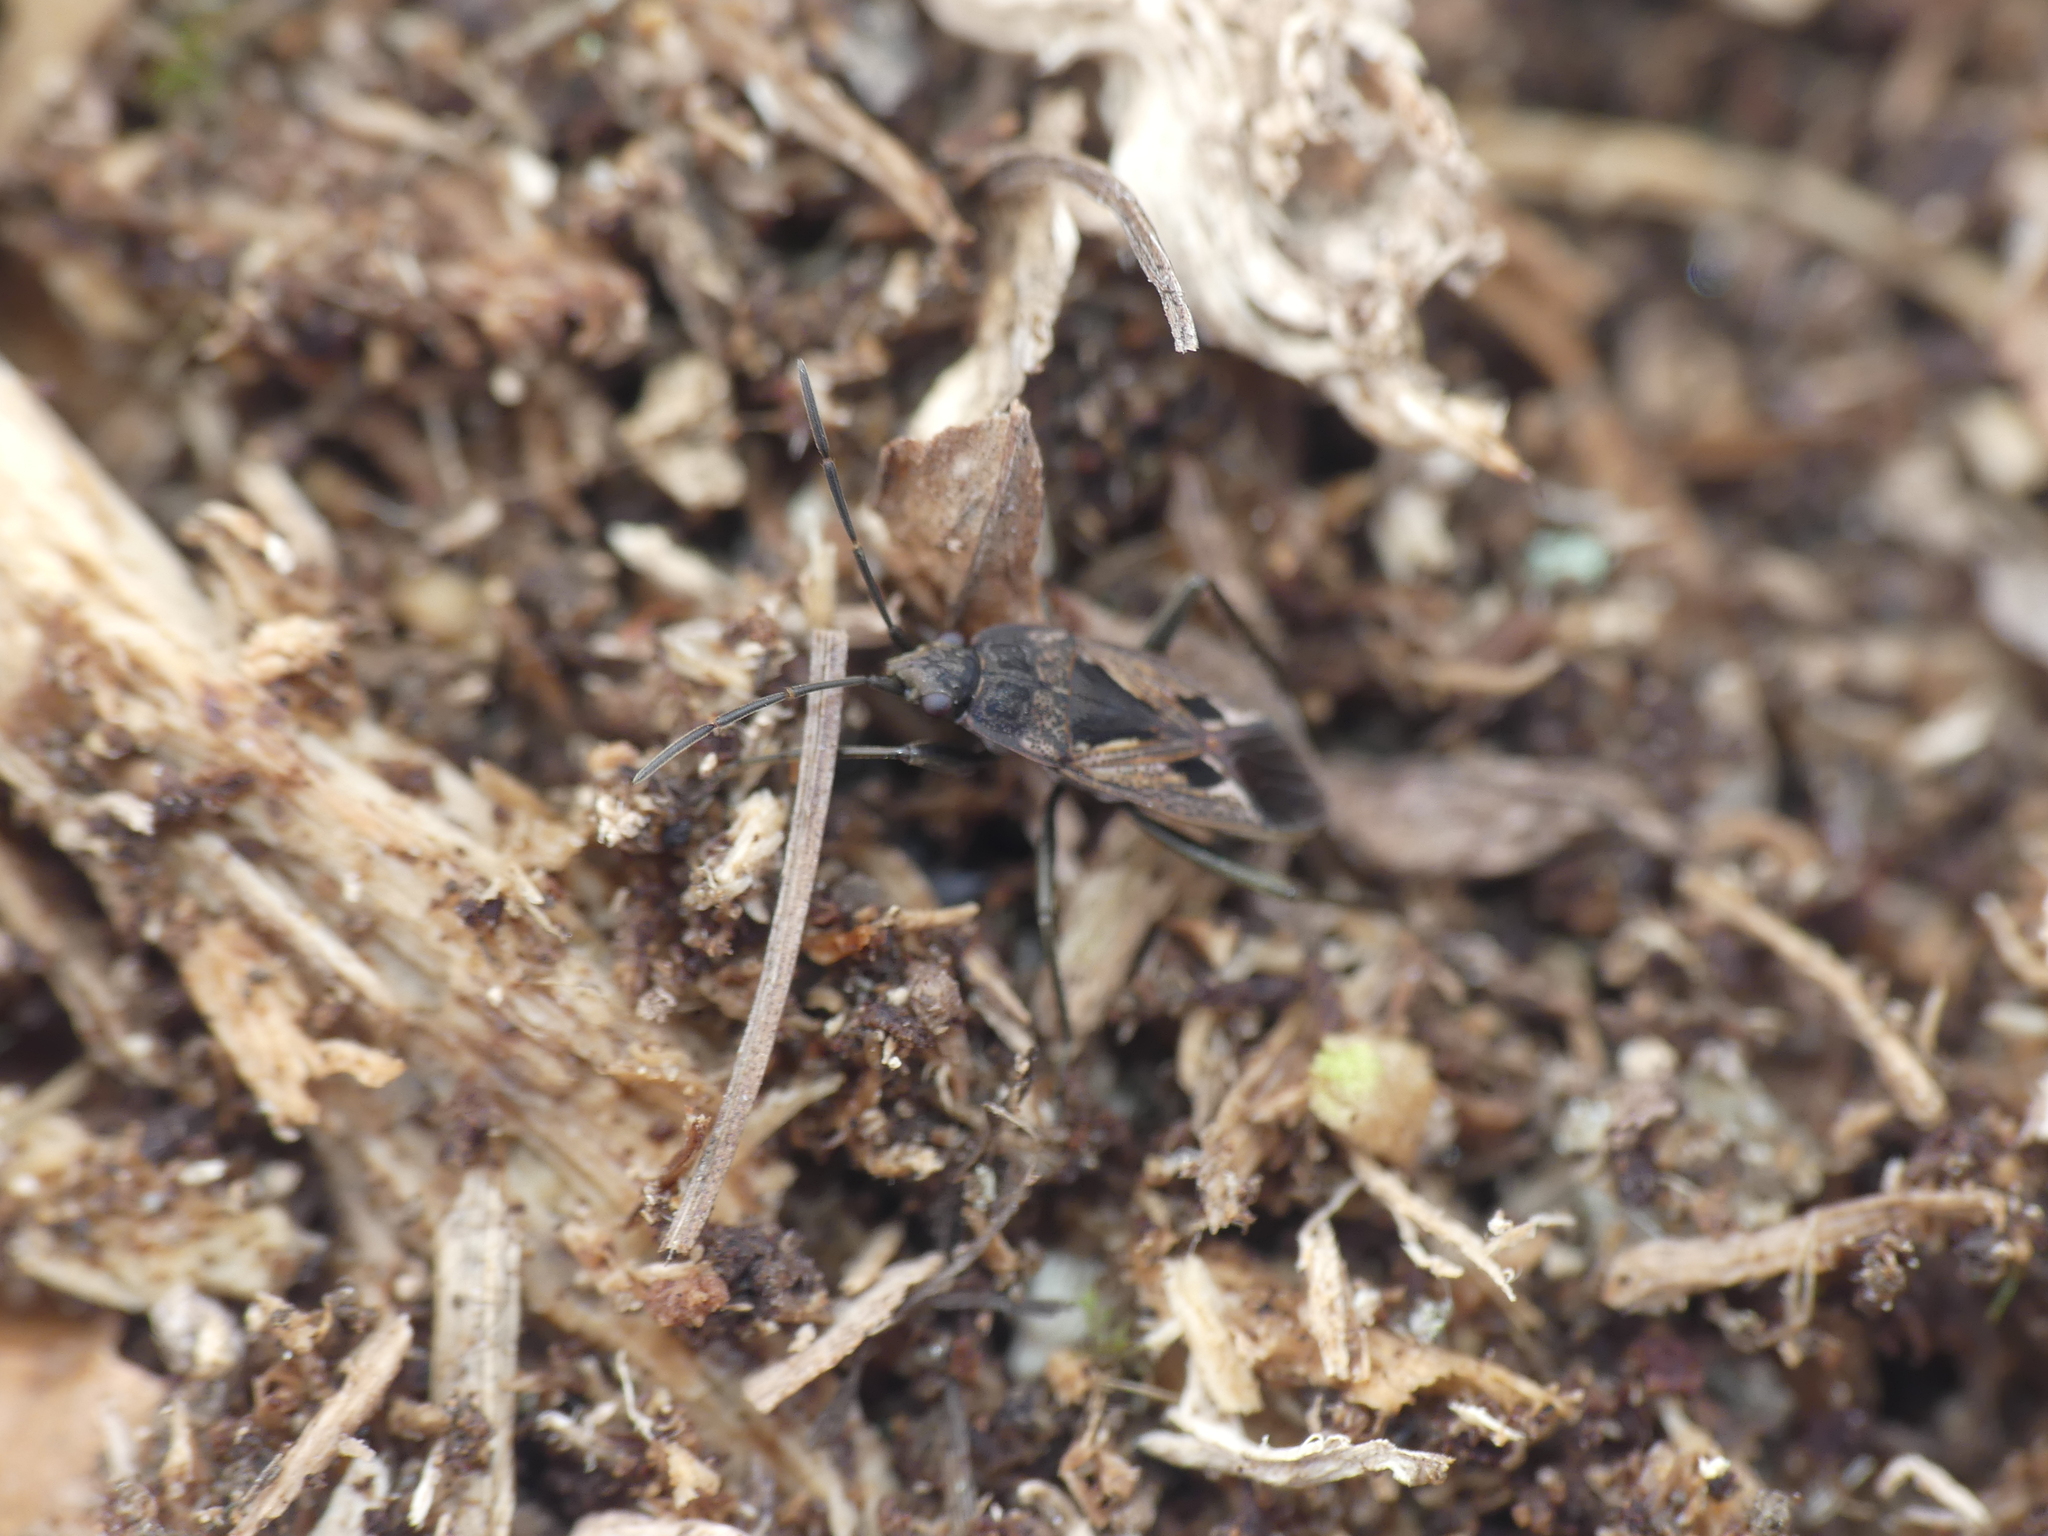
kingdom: Animalia
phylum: Arthropoda
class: Insecta
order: Hemiptera
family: Rhyparochromidae
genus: Rhyparochromus
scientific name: Rhyparochromus pini
